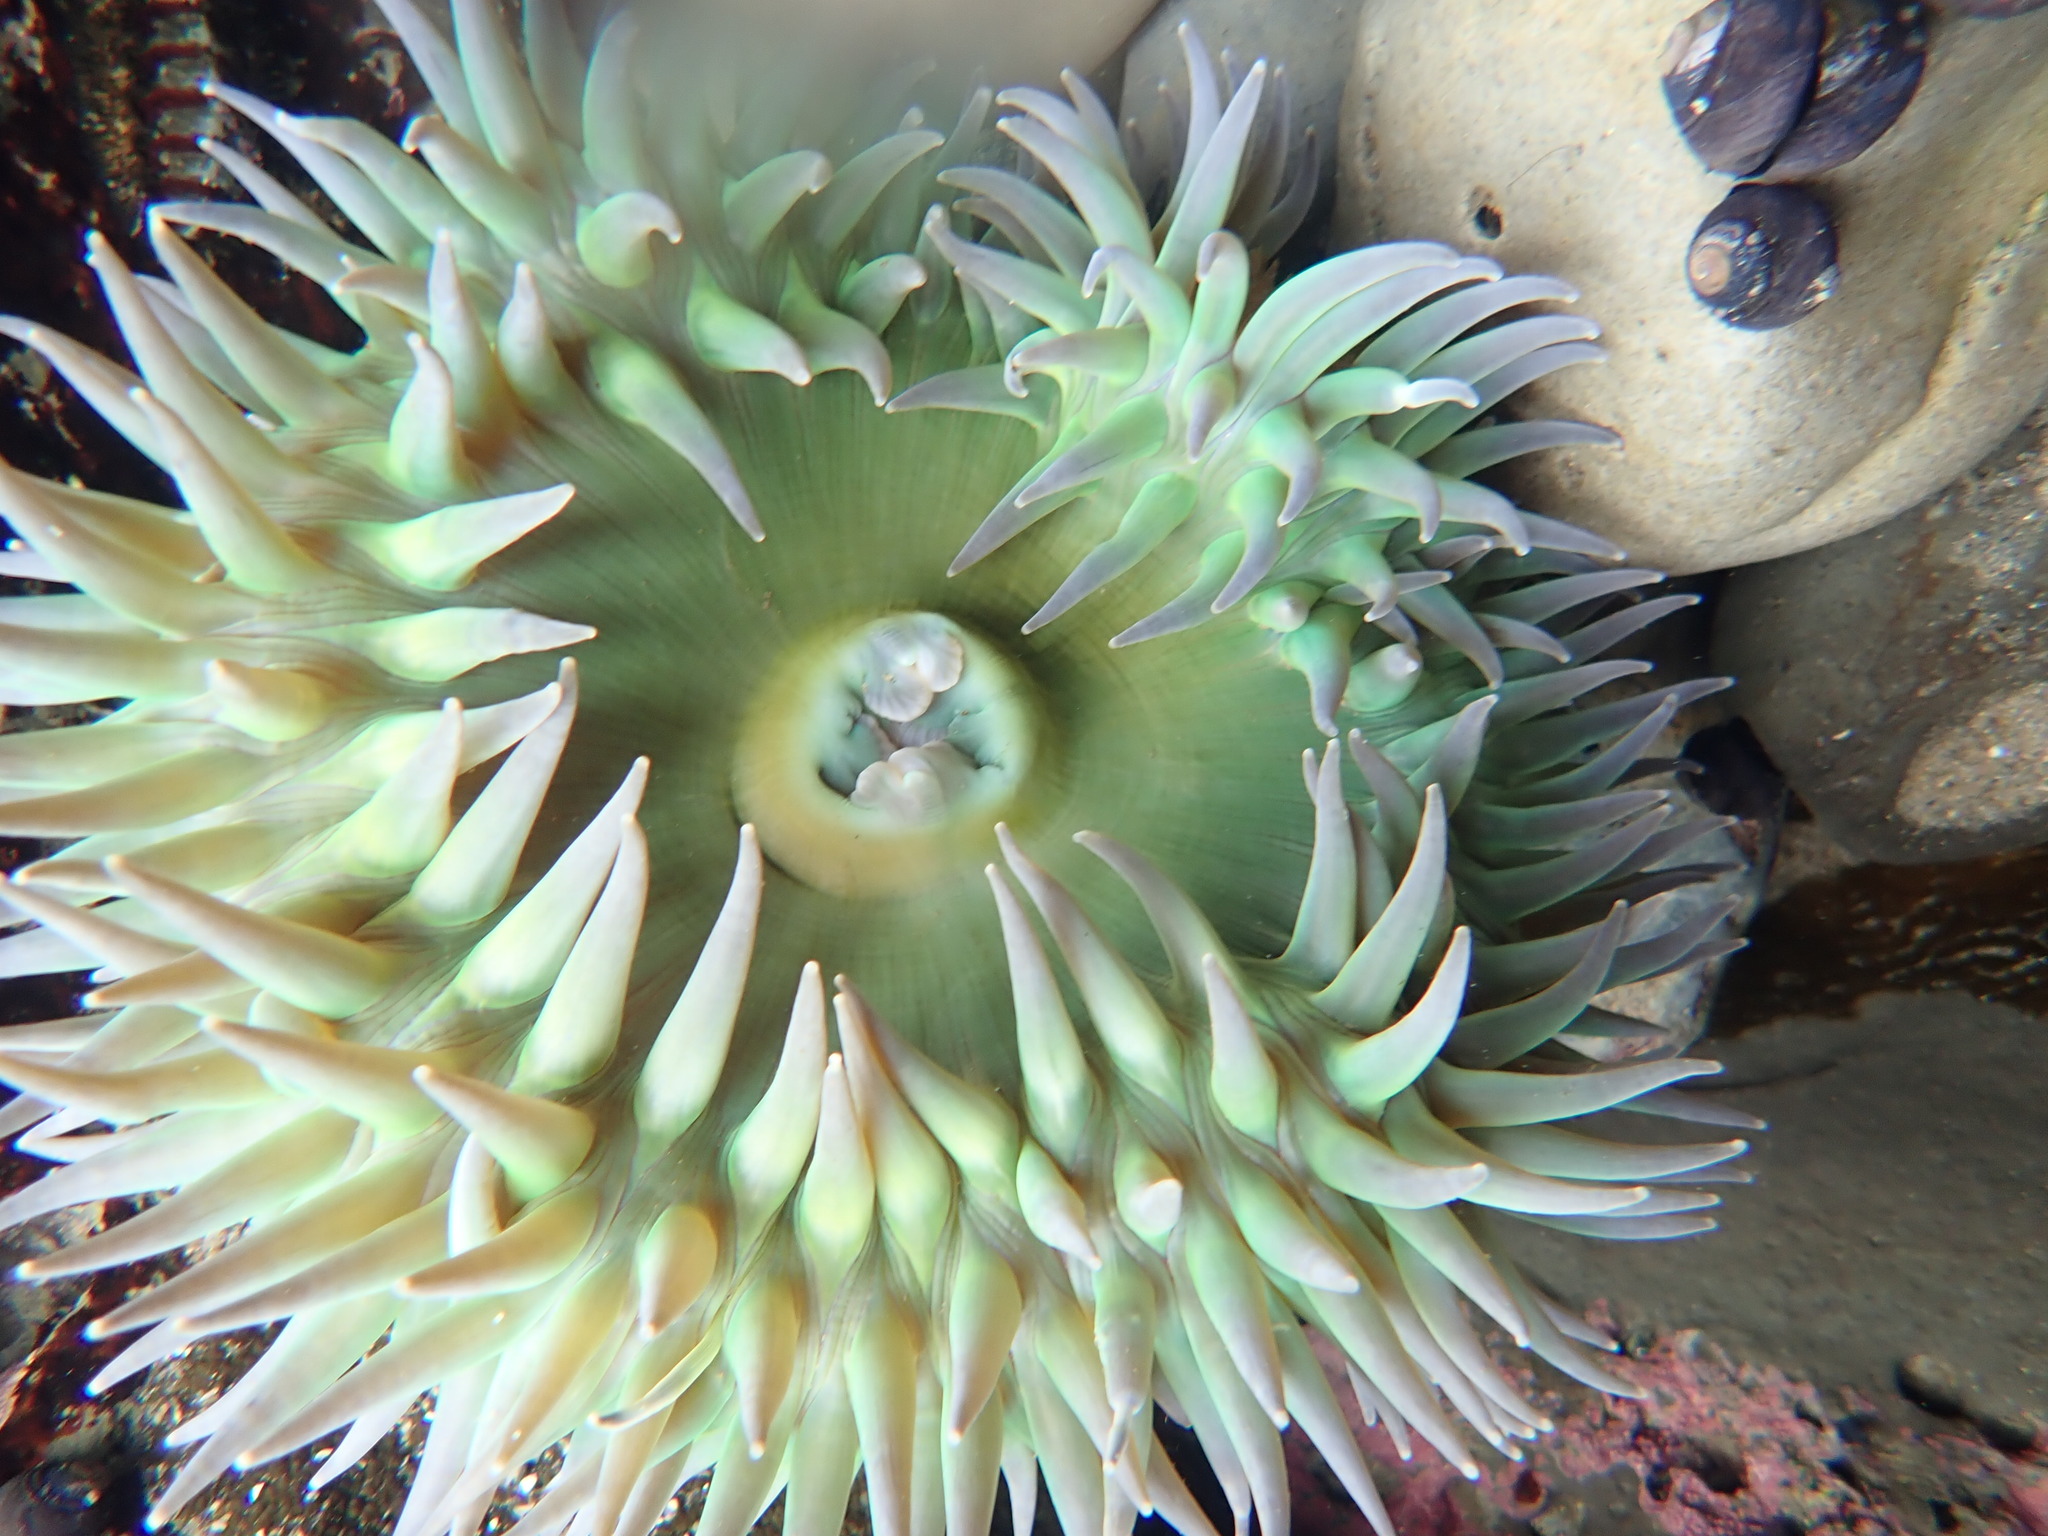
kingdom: Animalia
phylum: Cnidaria
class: Anthozoa
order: Actiniaria
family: Actiniidae
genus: Anthopleura
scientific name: Anthopleura xanthogrammica
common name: Giant green anemone
